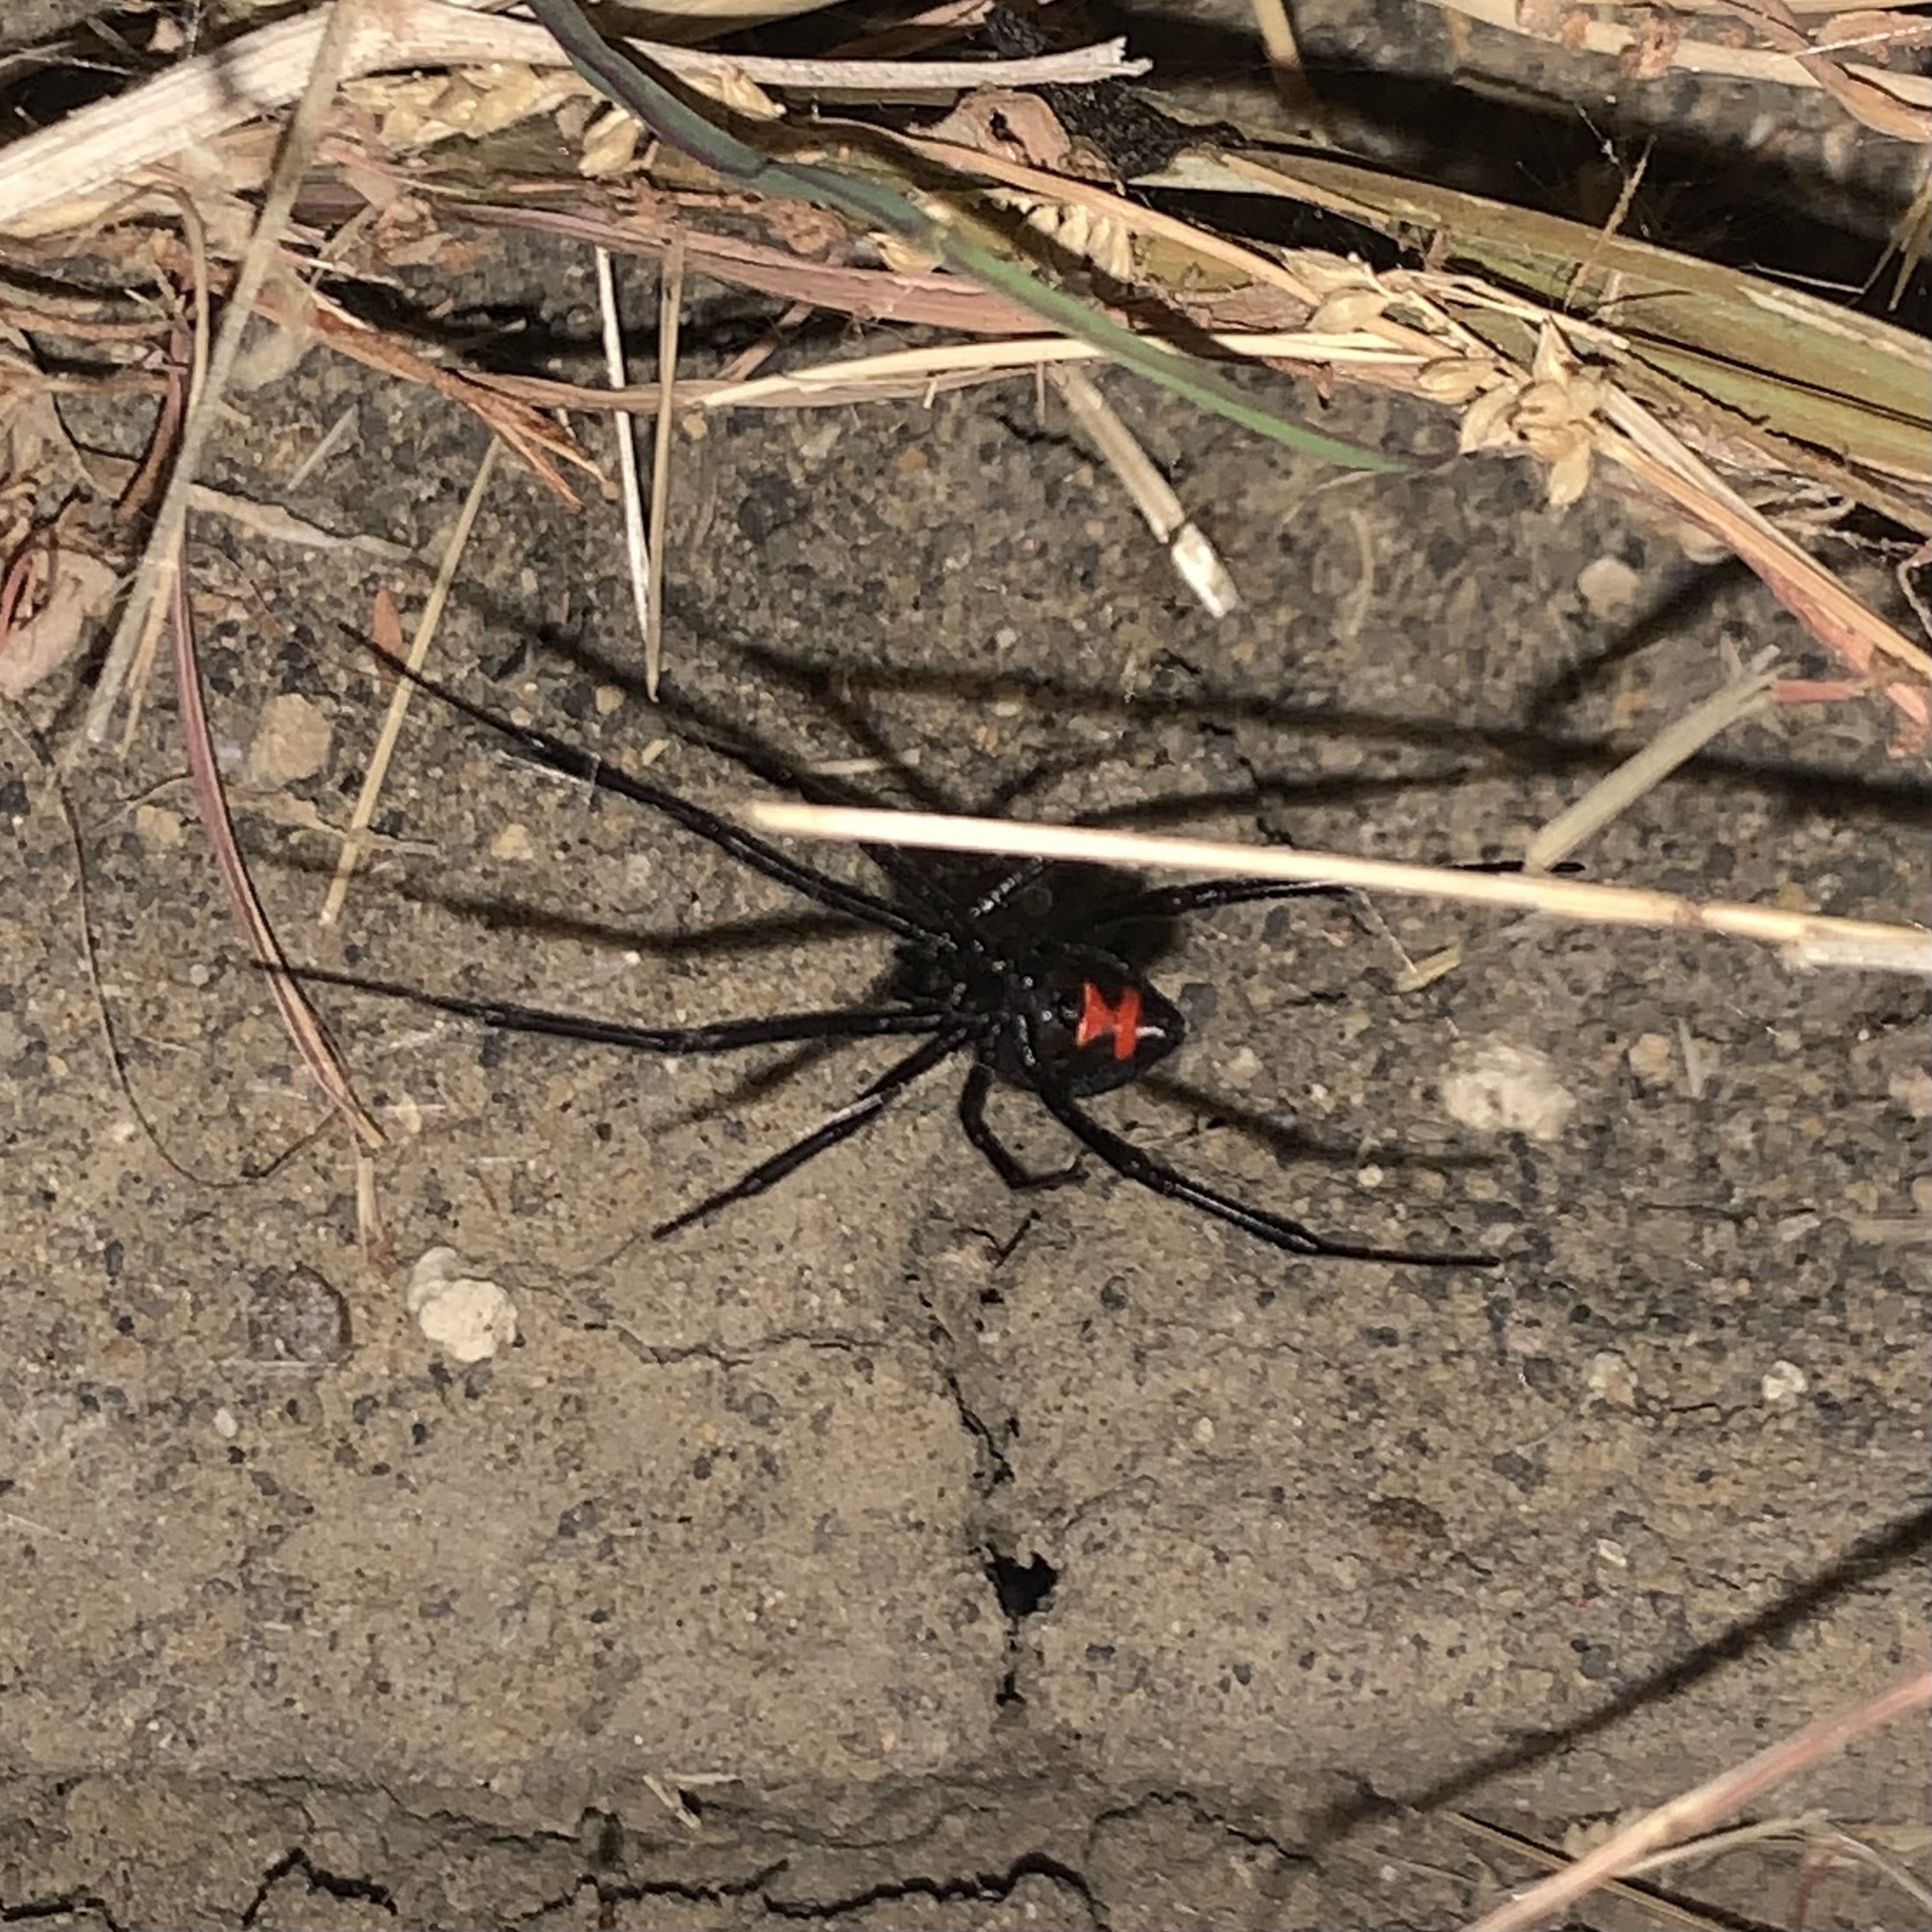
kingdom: Animalia
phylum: Arthropoda
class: Arachnida
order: Araneae
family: Theridiidae
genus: Latrodectus
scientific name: Latrodectus mactans
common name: Cobweb spiders
